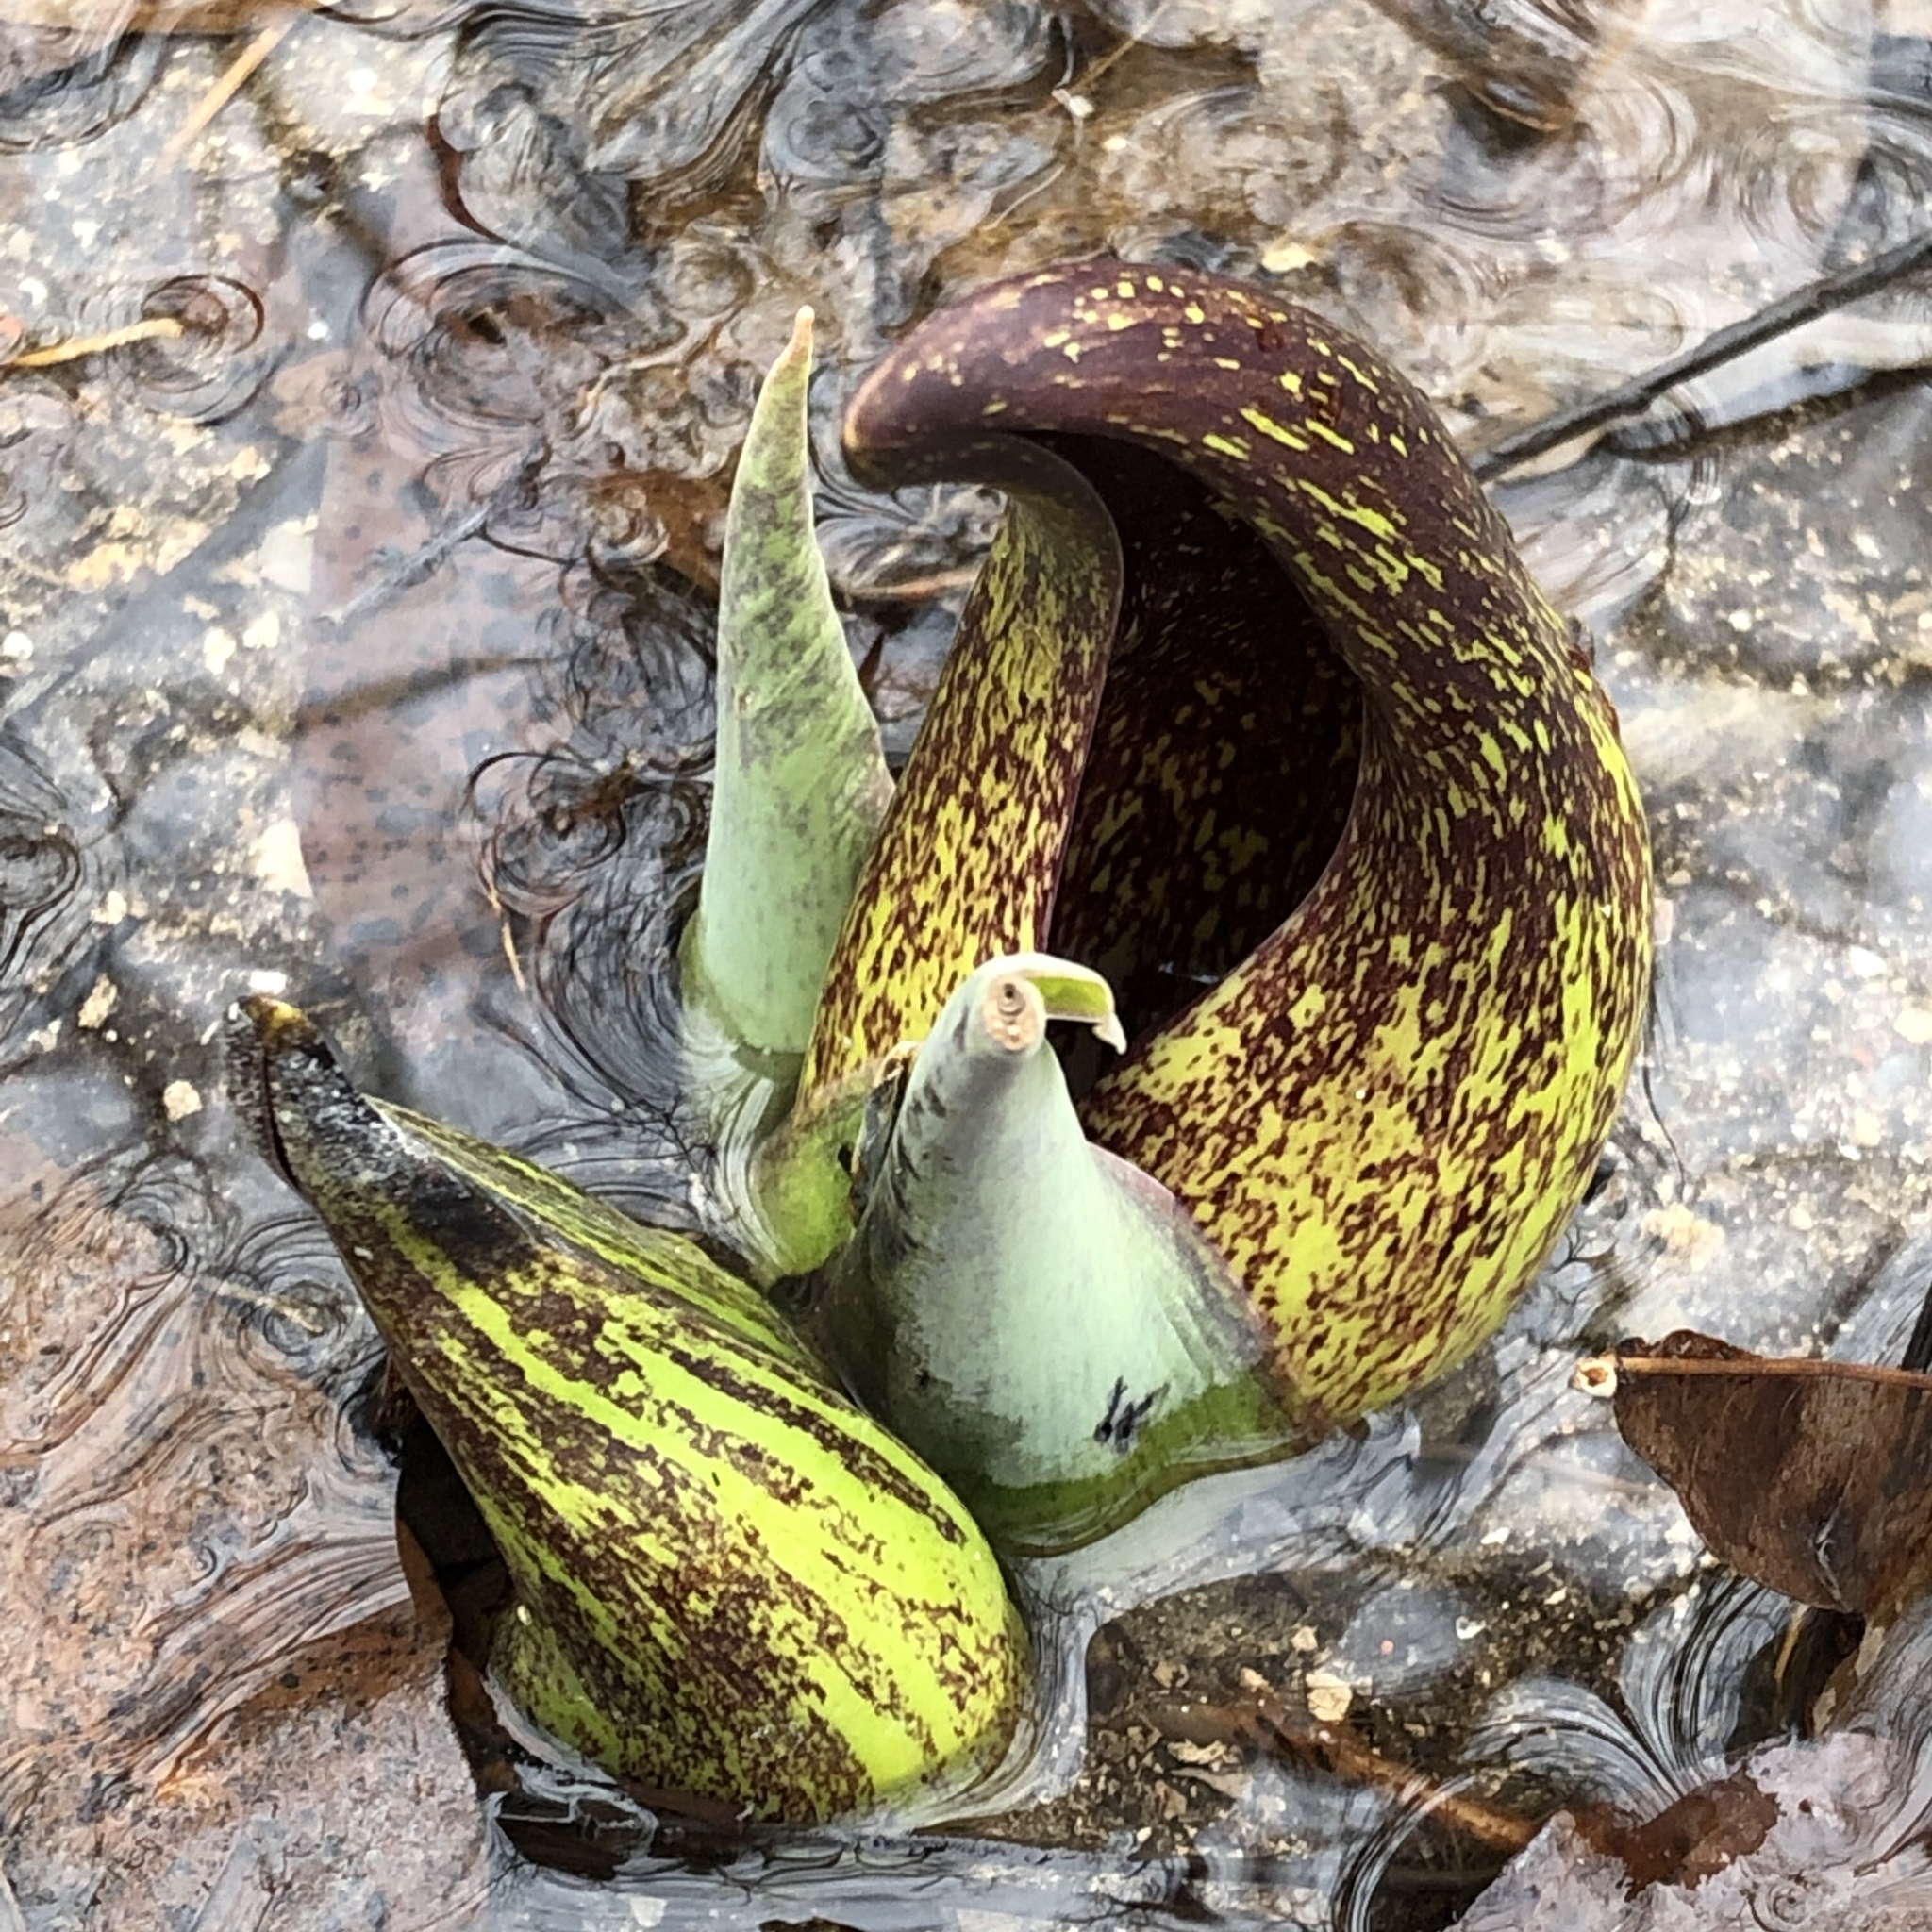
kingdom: Plantae
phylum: Tracheophyta
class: Liliopsida
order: Alismatales
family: Araceae
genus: Symplocarpus
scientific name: Symplocarpus foetidus
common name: Eastern skunk cabbage
